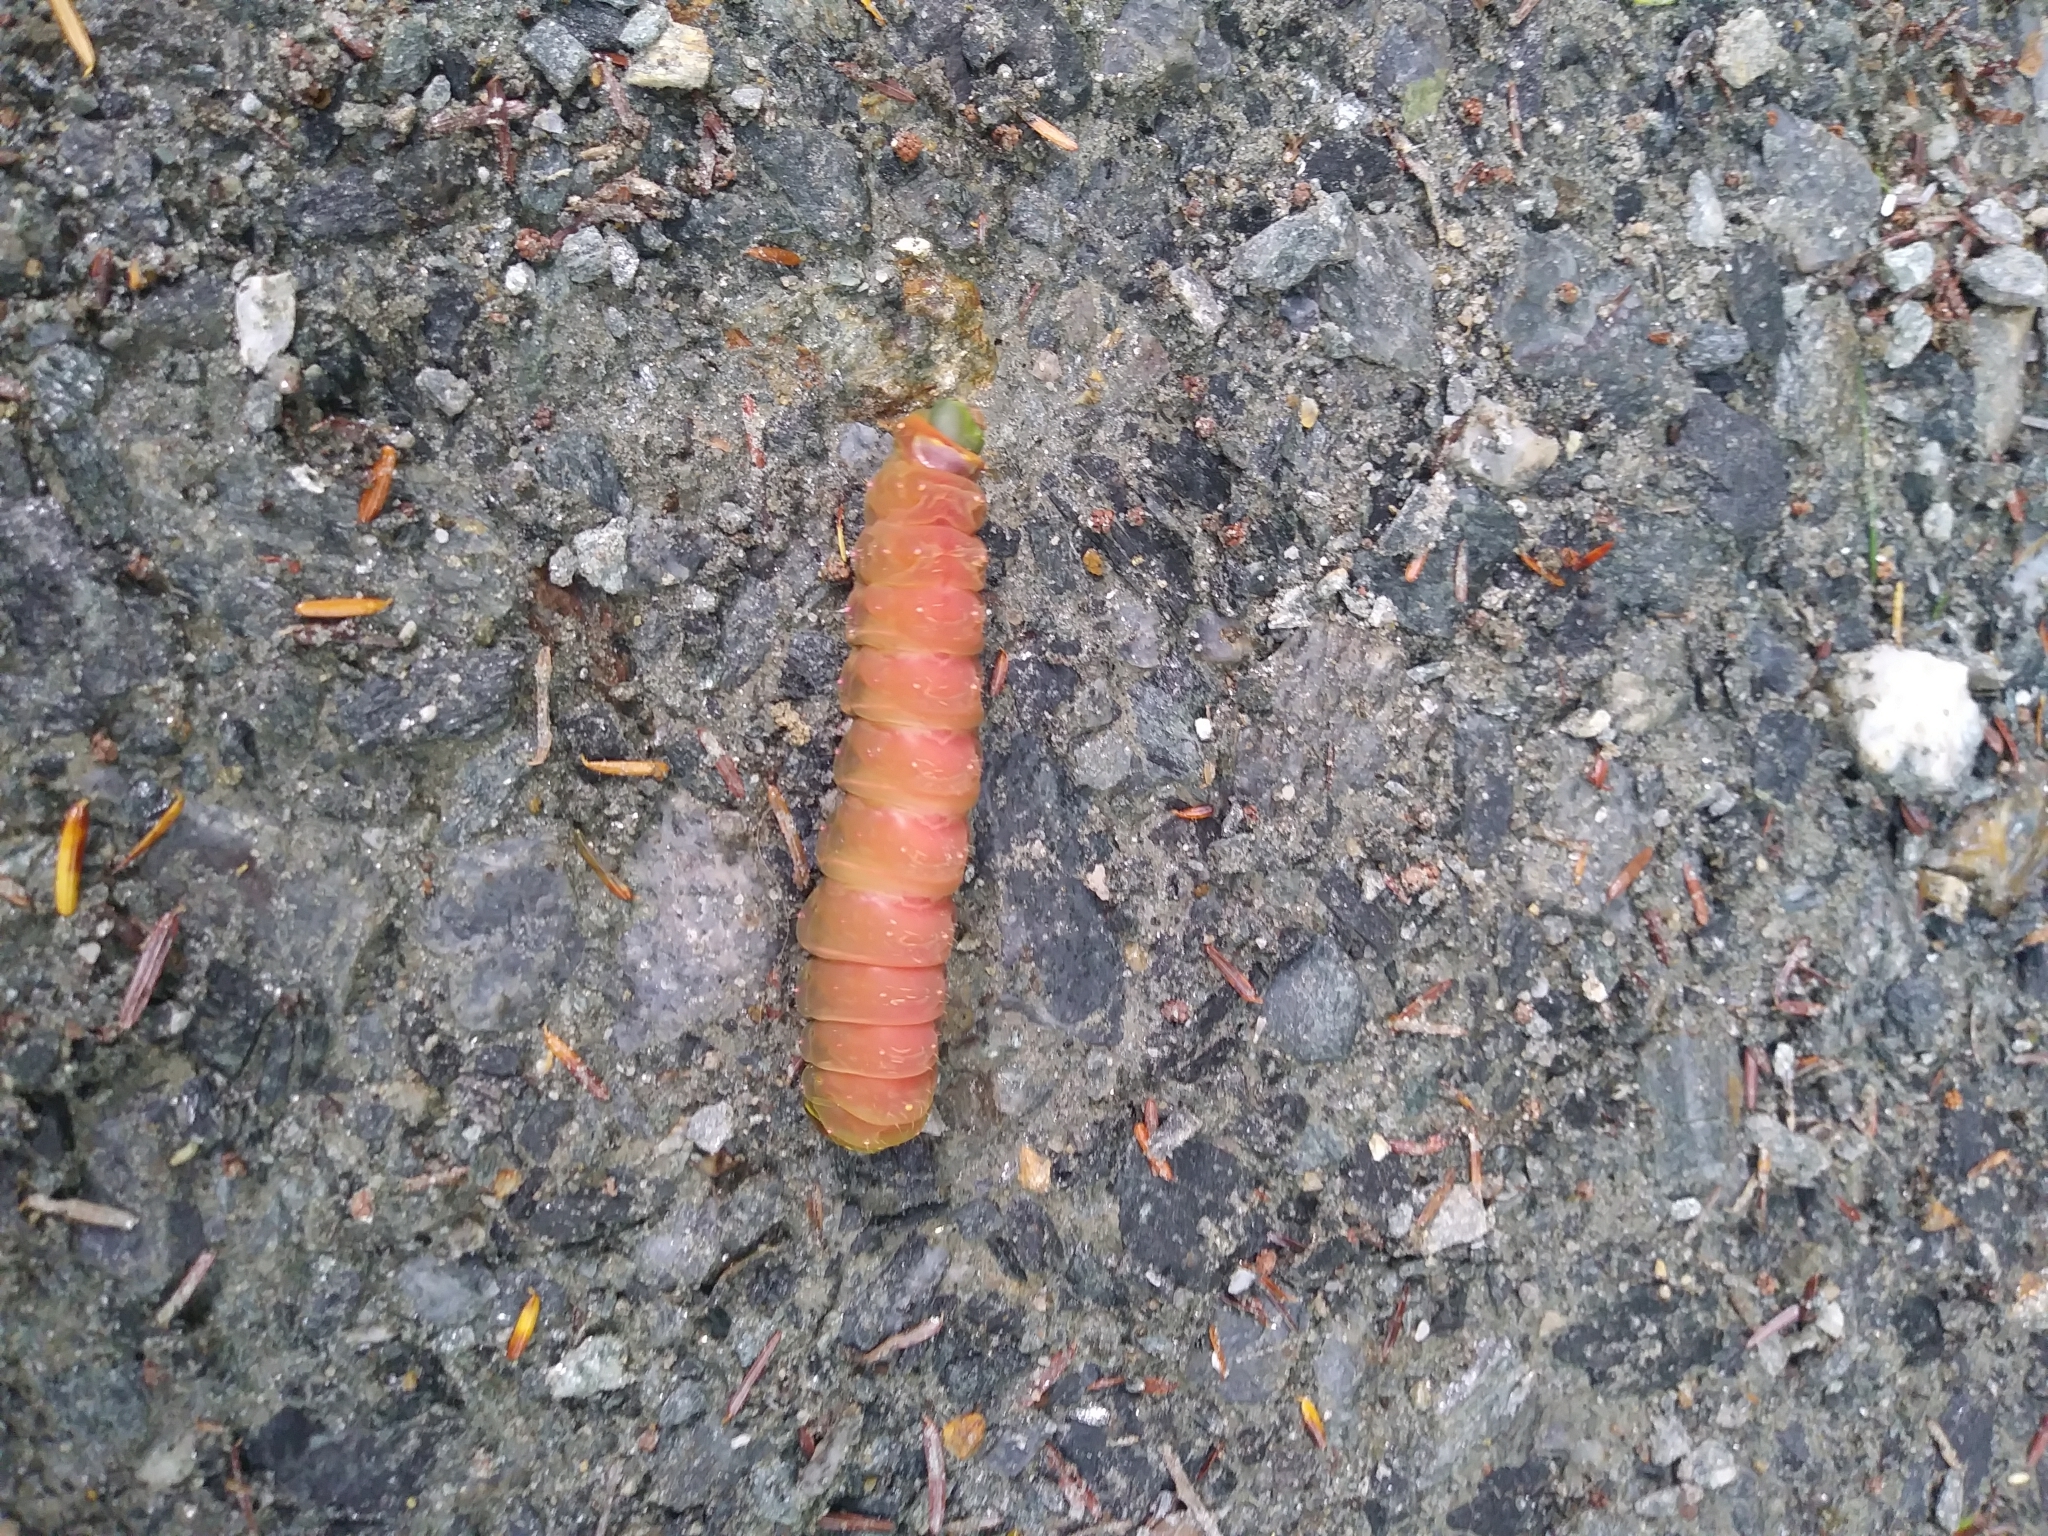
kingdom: Animalia
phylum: Arthropoda
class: Insecta
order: Lepidoptera
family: Saturniidae
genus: Actias
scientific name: Actias luna
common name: Luna moth
